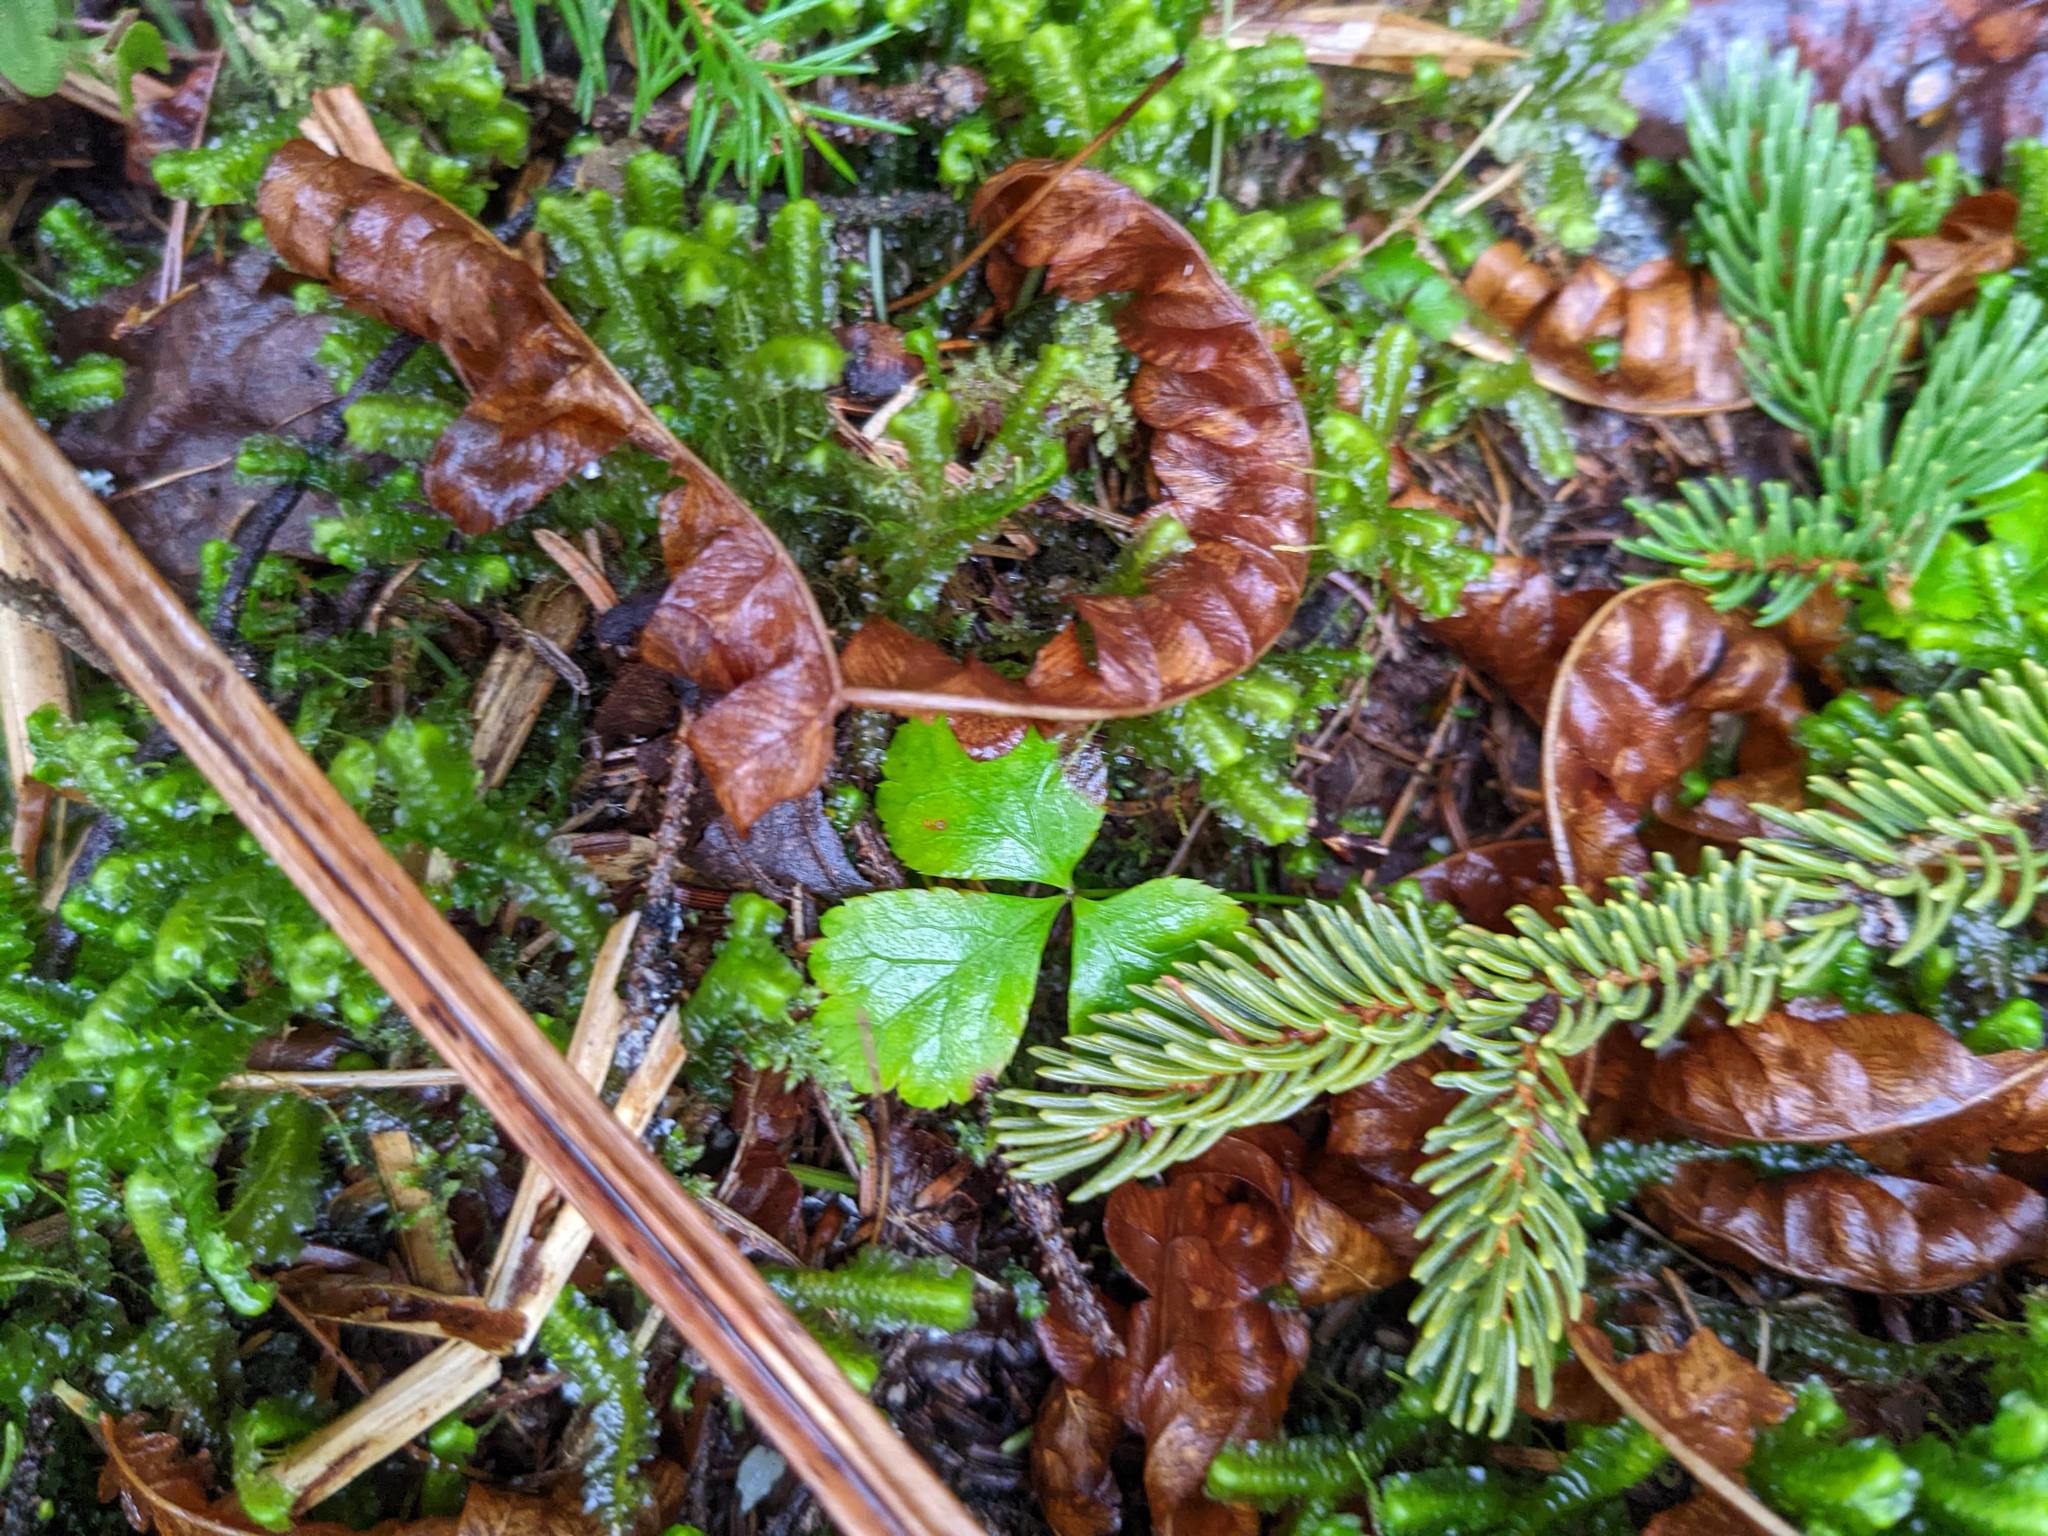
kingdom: Plantae
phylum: Tracheophyta
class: Polypodiopsida
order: Polypodiales
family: Dennstaedtiaceae
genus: Pteridium
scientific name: Pteridium aquilinum
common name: Bracken
